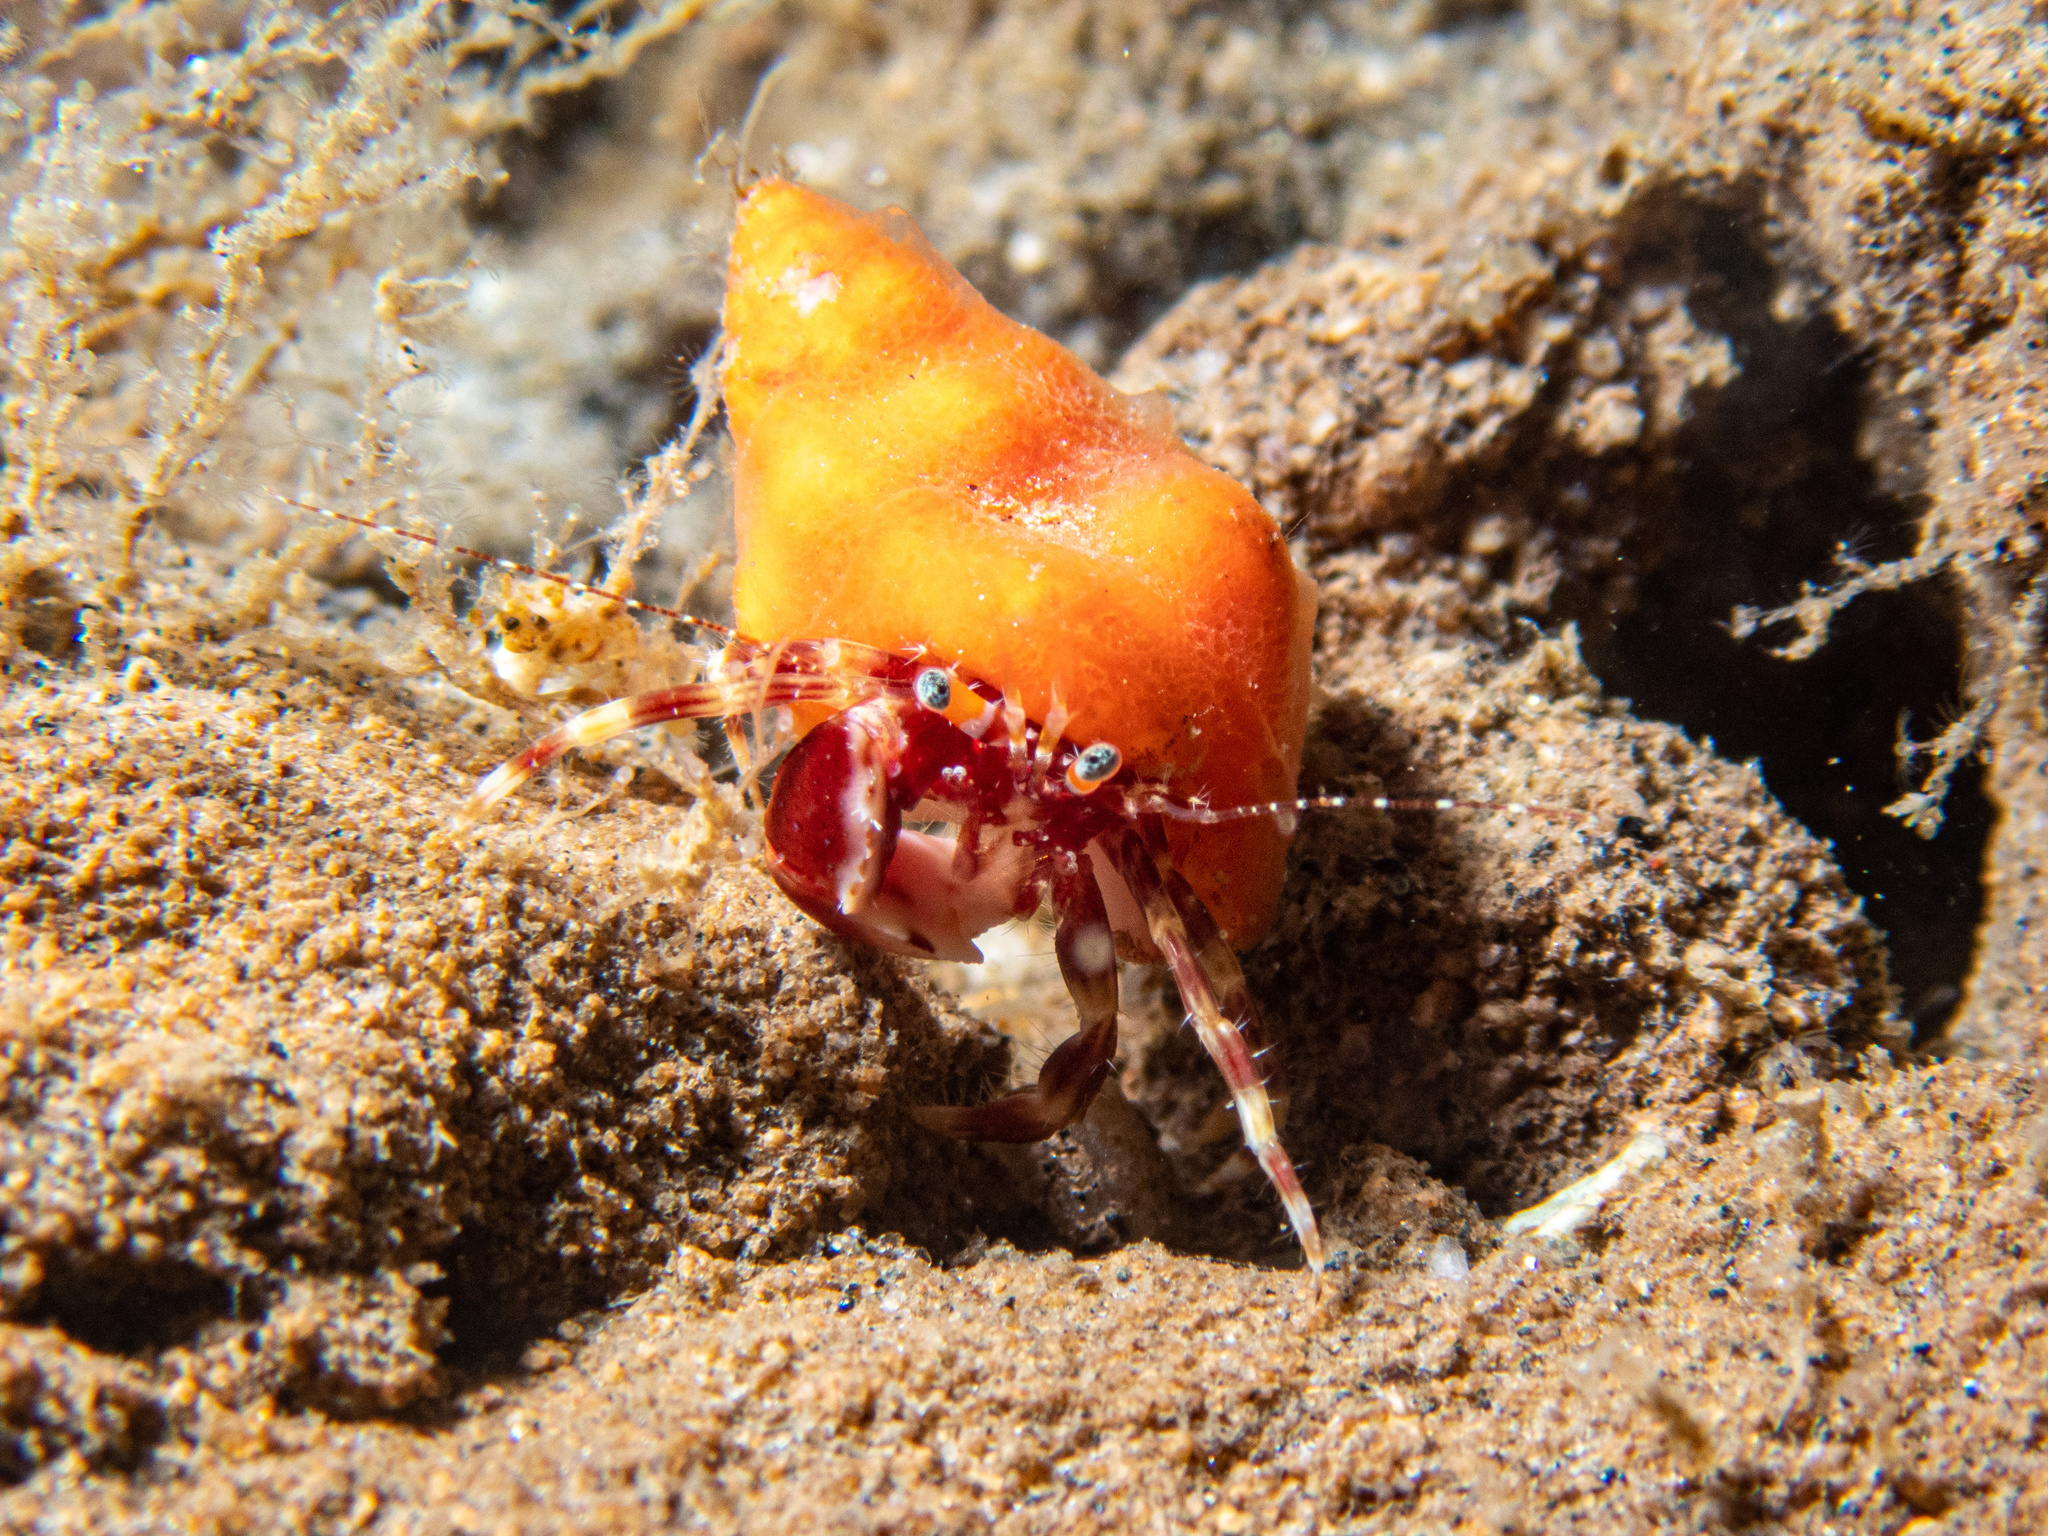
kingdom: Animalia
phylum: Arthropoda
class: Malacostraca
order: Decapoda
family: Paguridae
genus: Phimochirus
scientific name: Phimochirus californiensis
